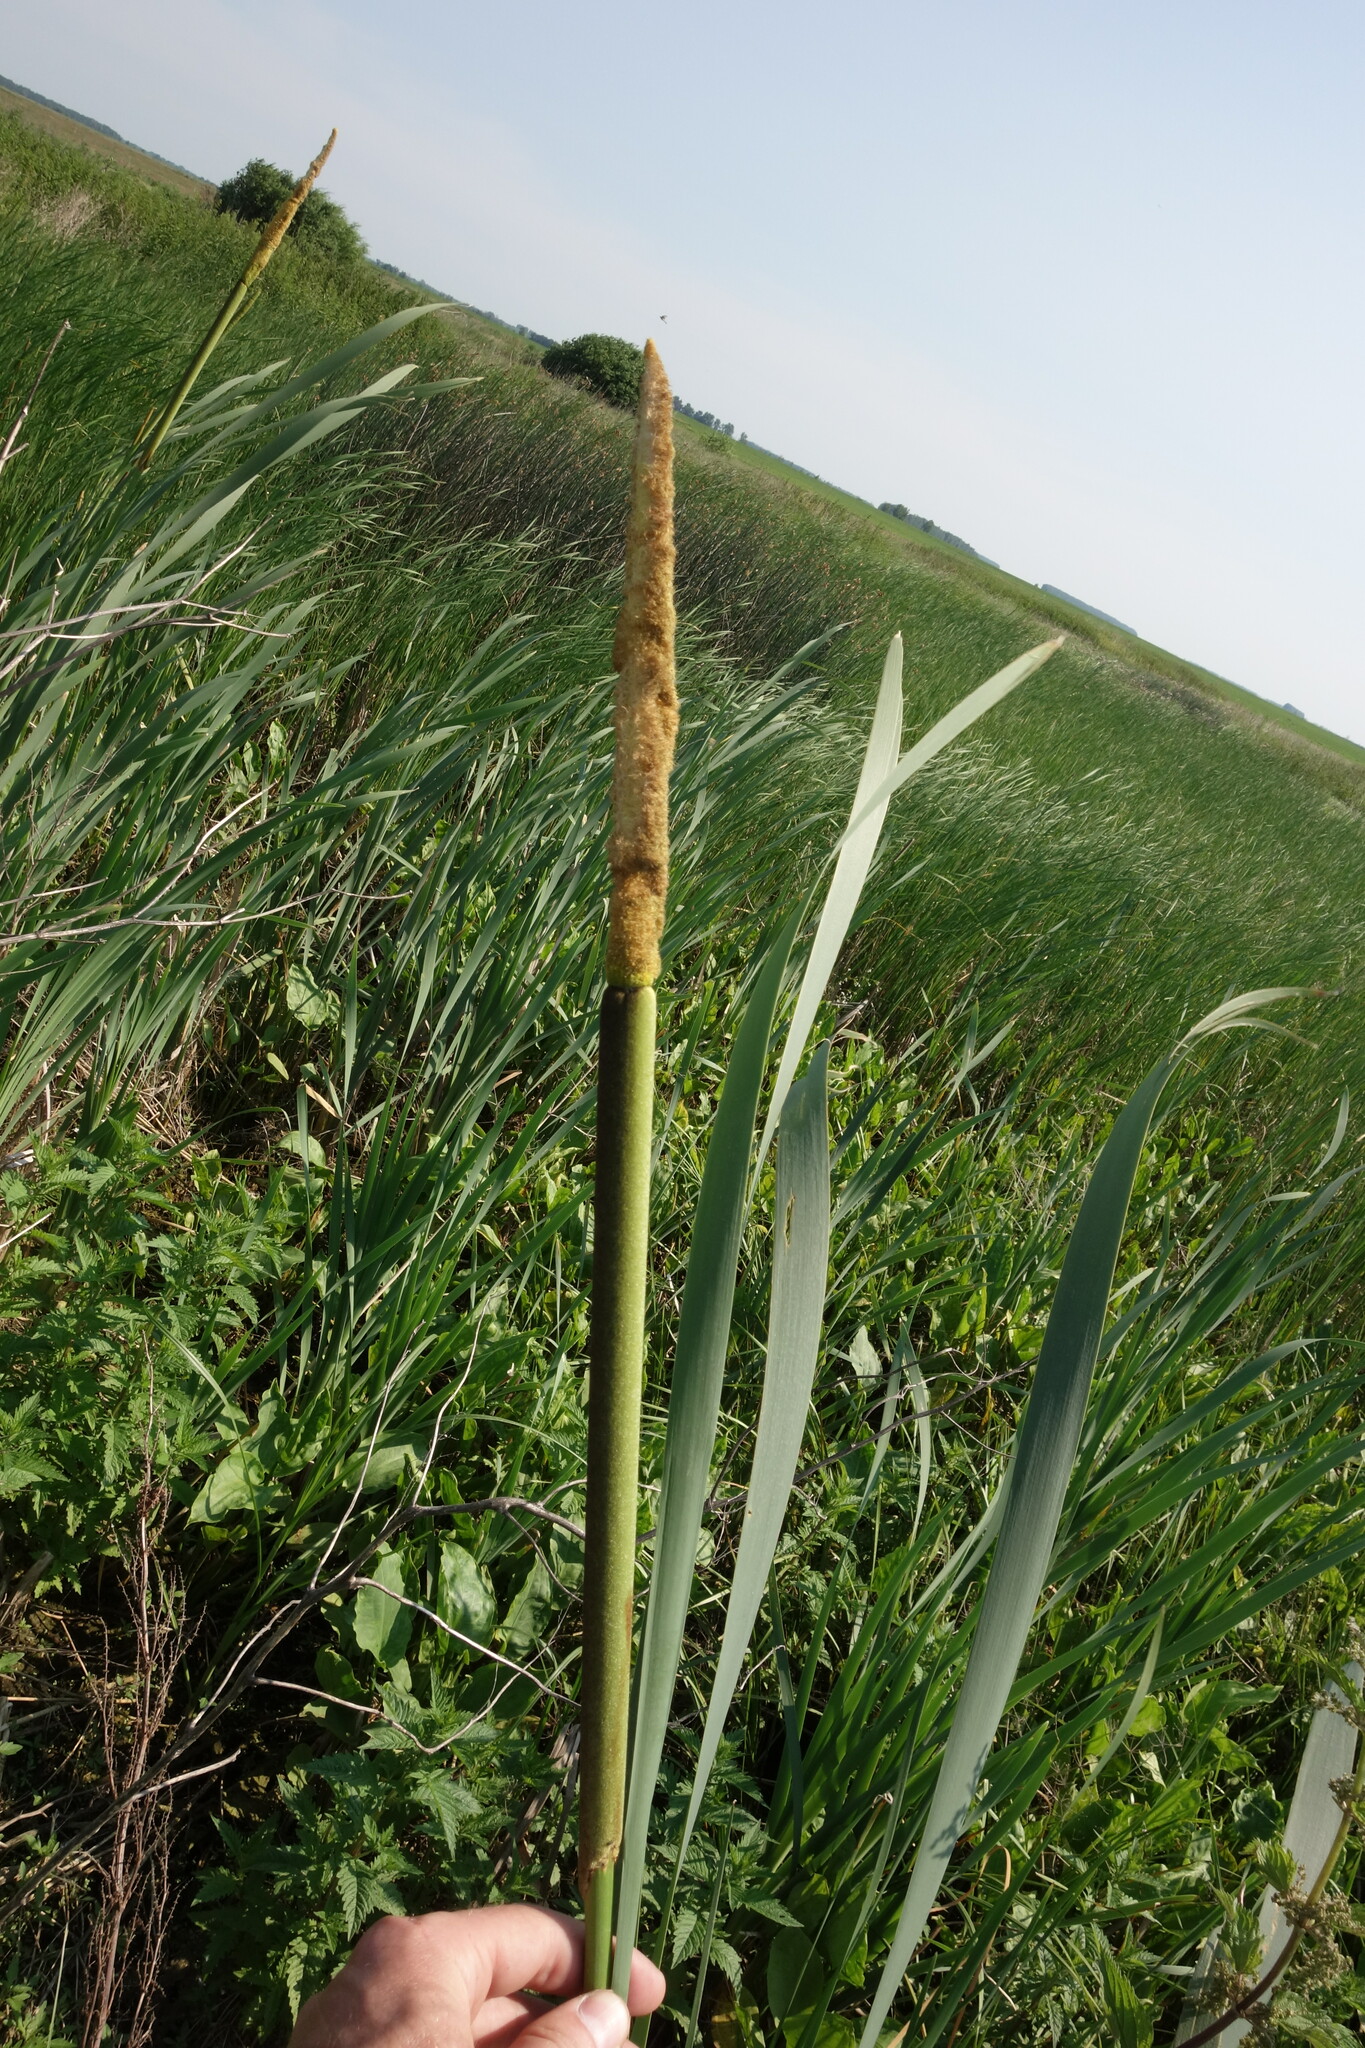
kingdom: Plantae
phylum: Tracheophyta
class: Liliopsida
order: Poales
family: Typhaceae
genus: Typha
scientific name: Typha latifolia
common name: Broadleaf cattail
